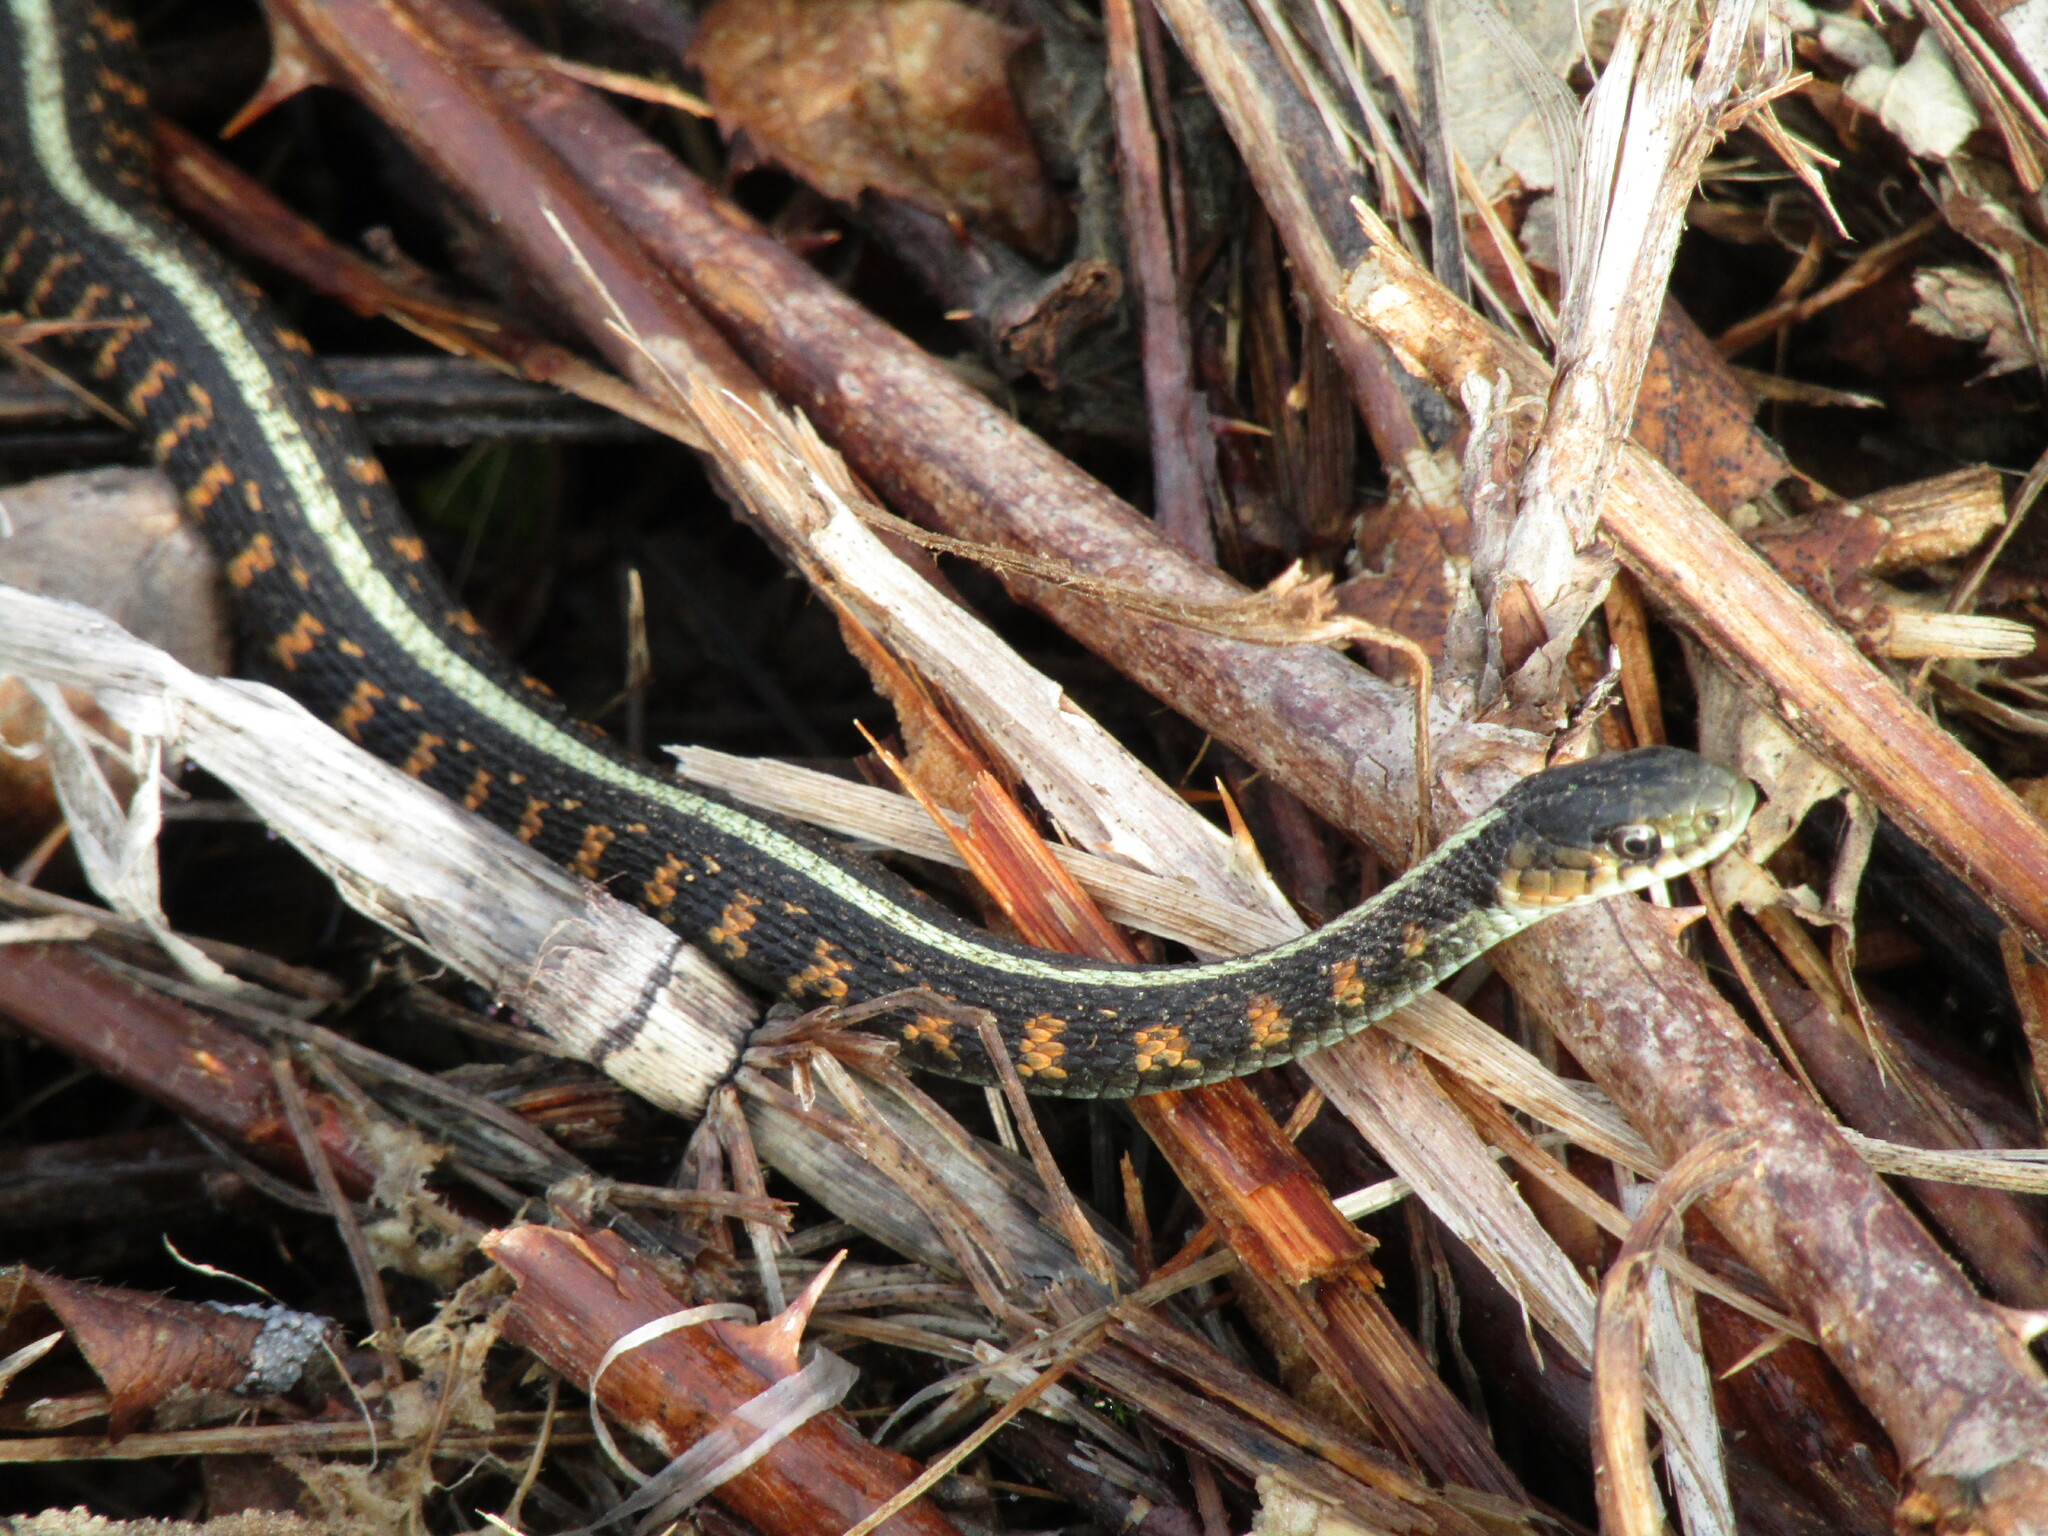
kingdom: Animalia
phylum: Chordata
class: Squamata
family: Colubridae
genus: Thamnophis
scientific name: Thamnophis sirtalis
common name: Common garter snake
